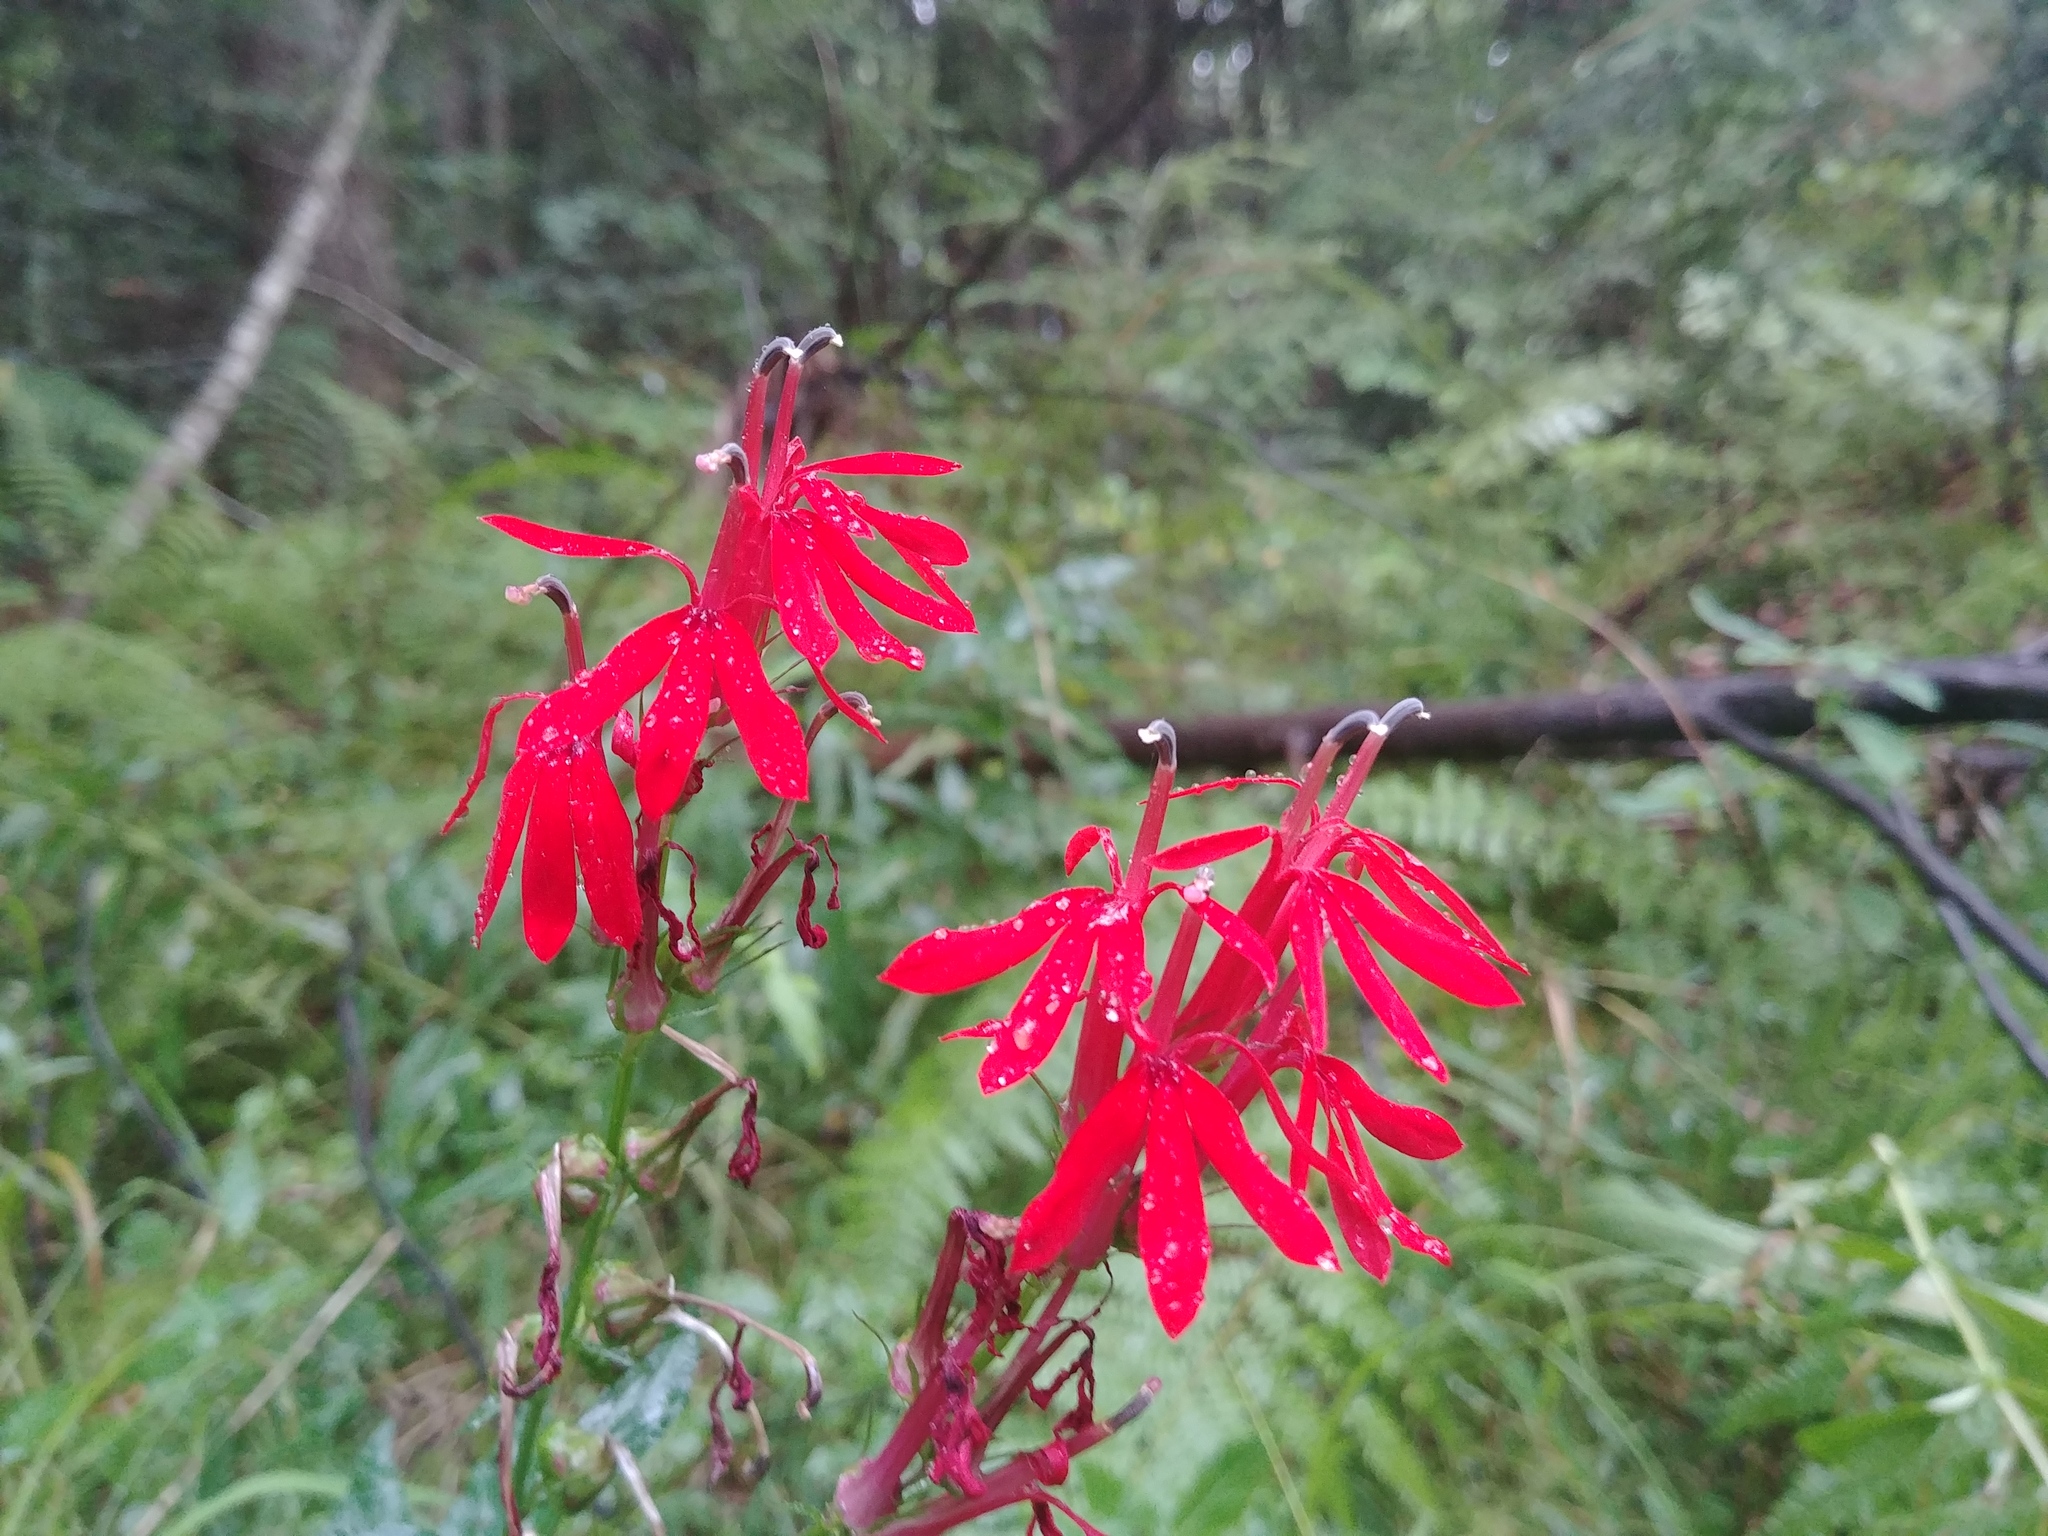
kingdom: Plantae
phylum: Tracheophyta
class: Magnoliopsida
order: Asterales
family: Campanulaceae
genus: Lobelia
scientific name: Lobelia cardinalis
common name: Cardinal flower
